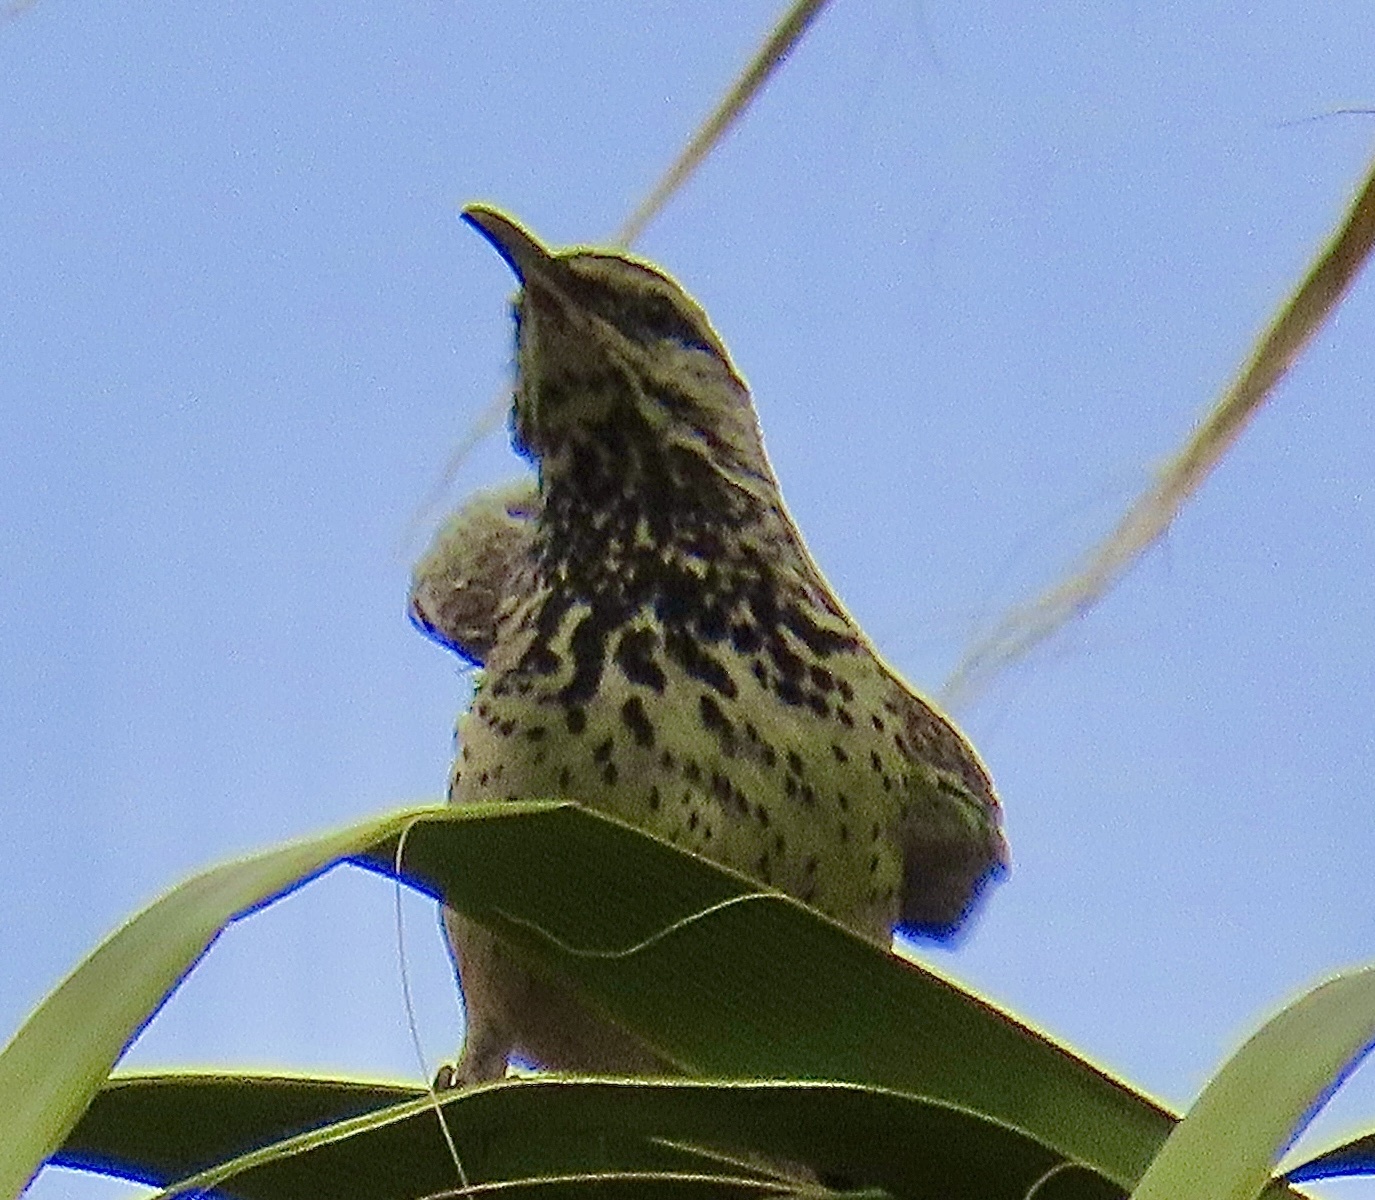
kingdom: Animalia
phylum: Chordata
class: Aves
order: Passeriformes
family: Troglodytidae
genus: Campylorhynchus
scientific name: Campylorhynchus brunneicapillus
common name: Cactus wren
